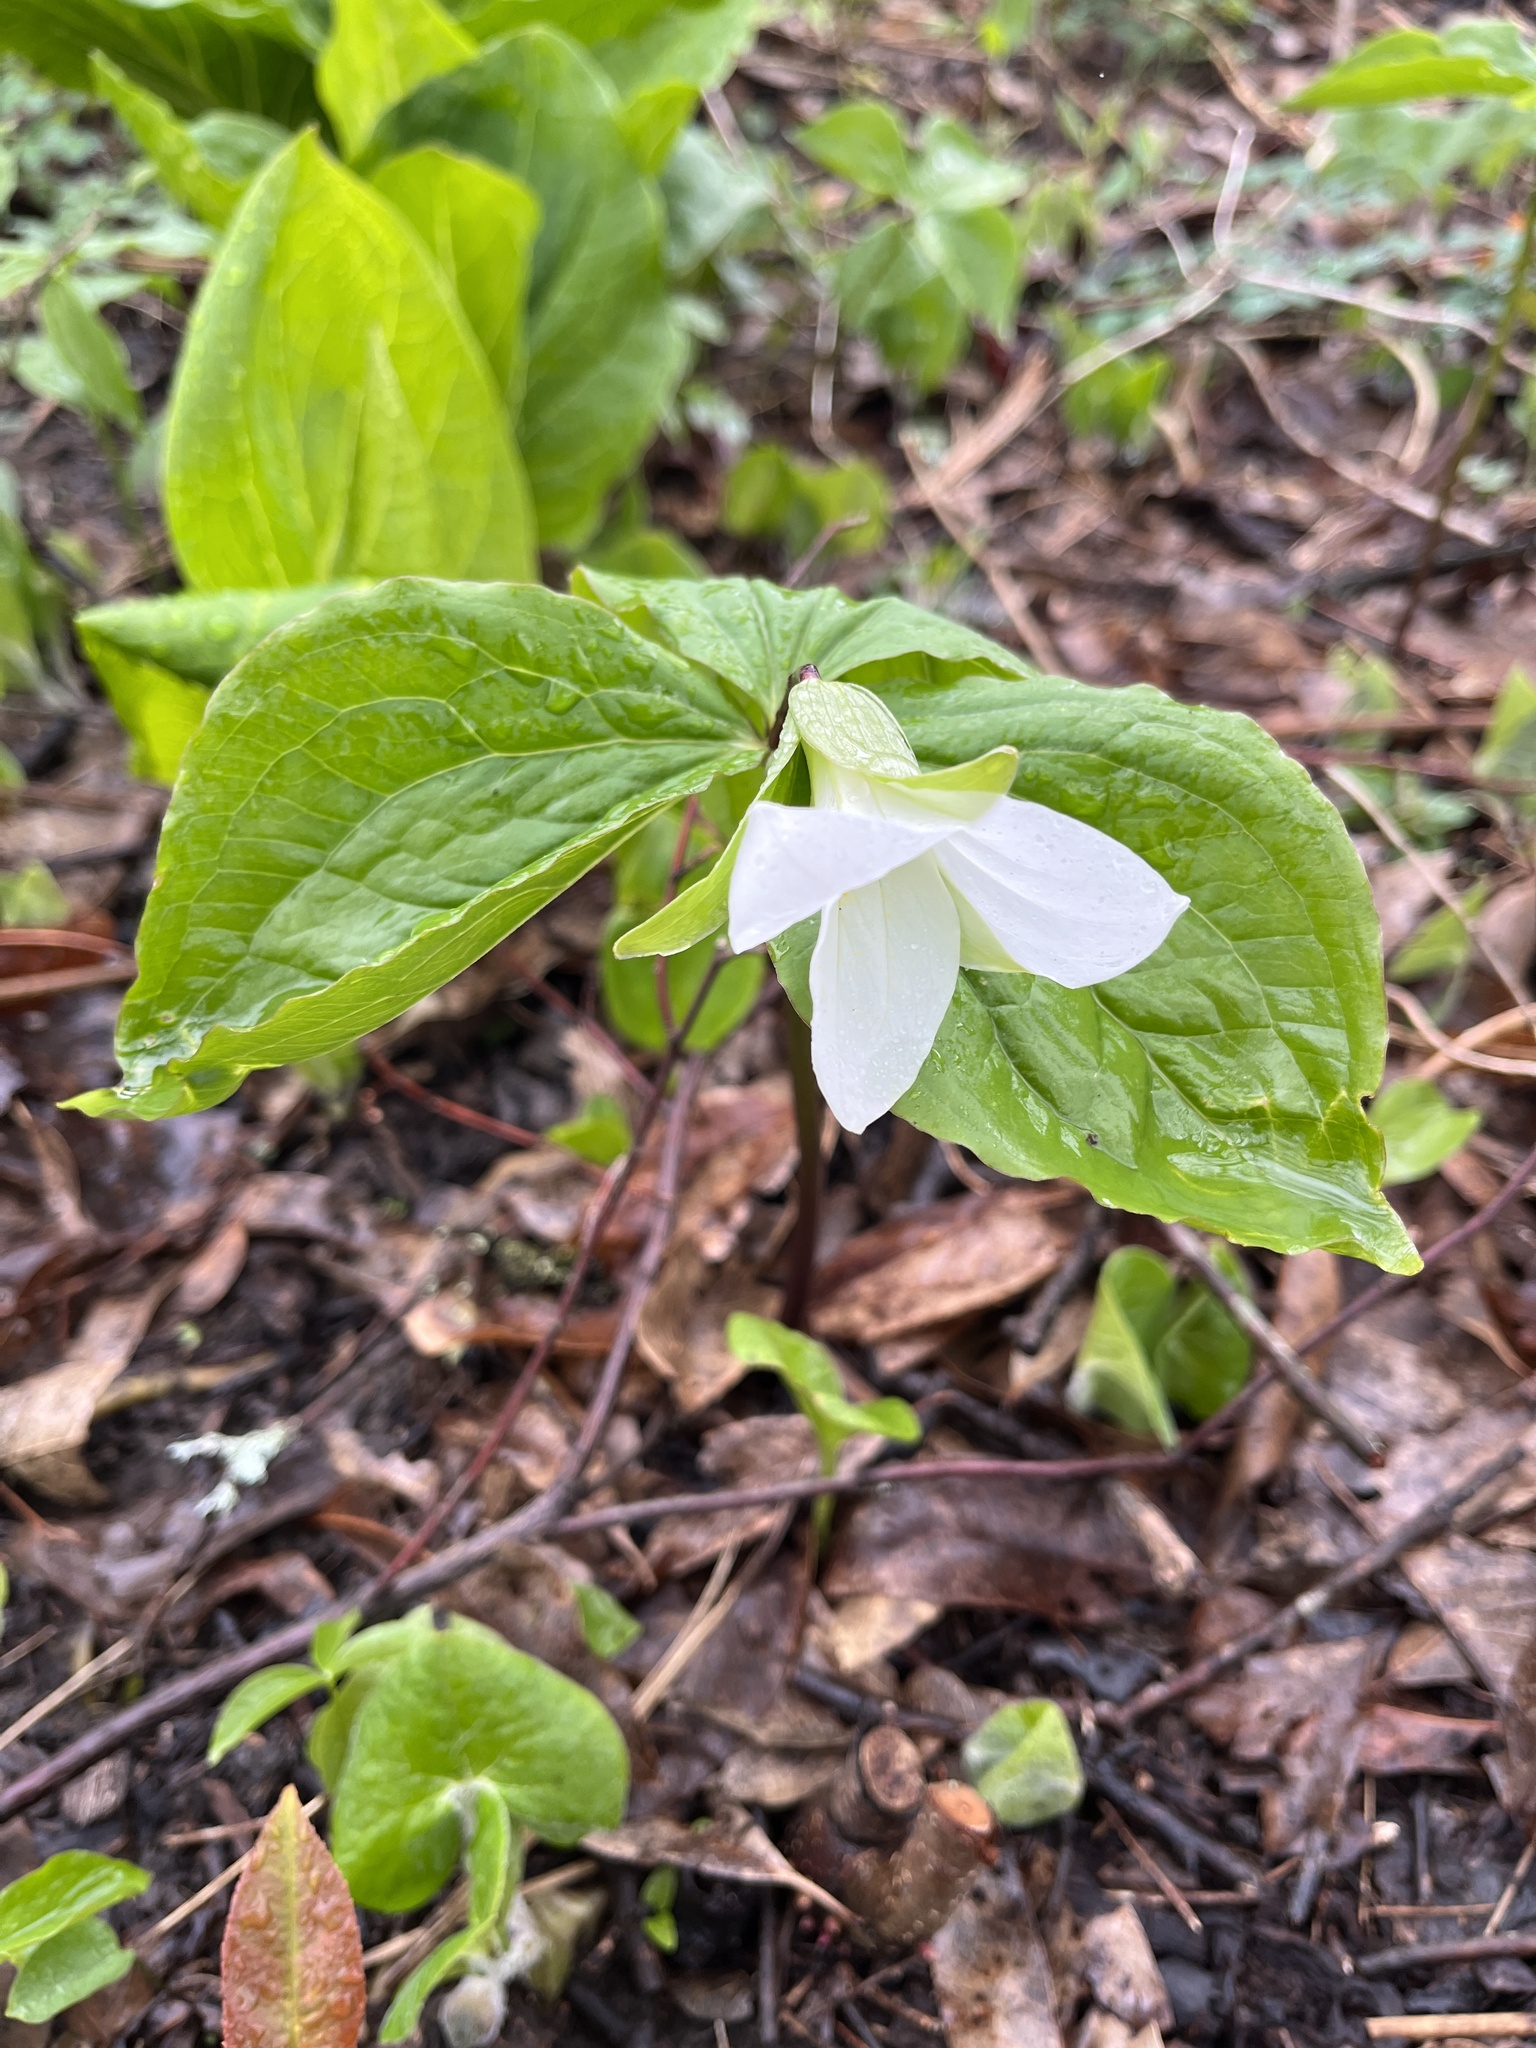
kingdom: Plantae
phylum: Tracheophyta
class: Liliopsida
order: Liliales
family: Melanthiaceae
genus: Trillium
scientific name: Trillium grandiflorum
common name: Great white trillium
